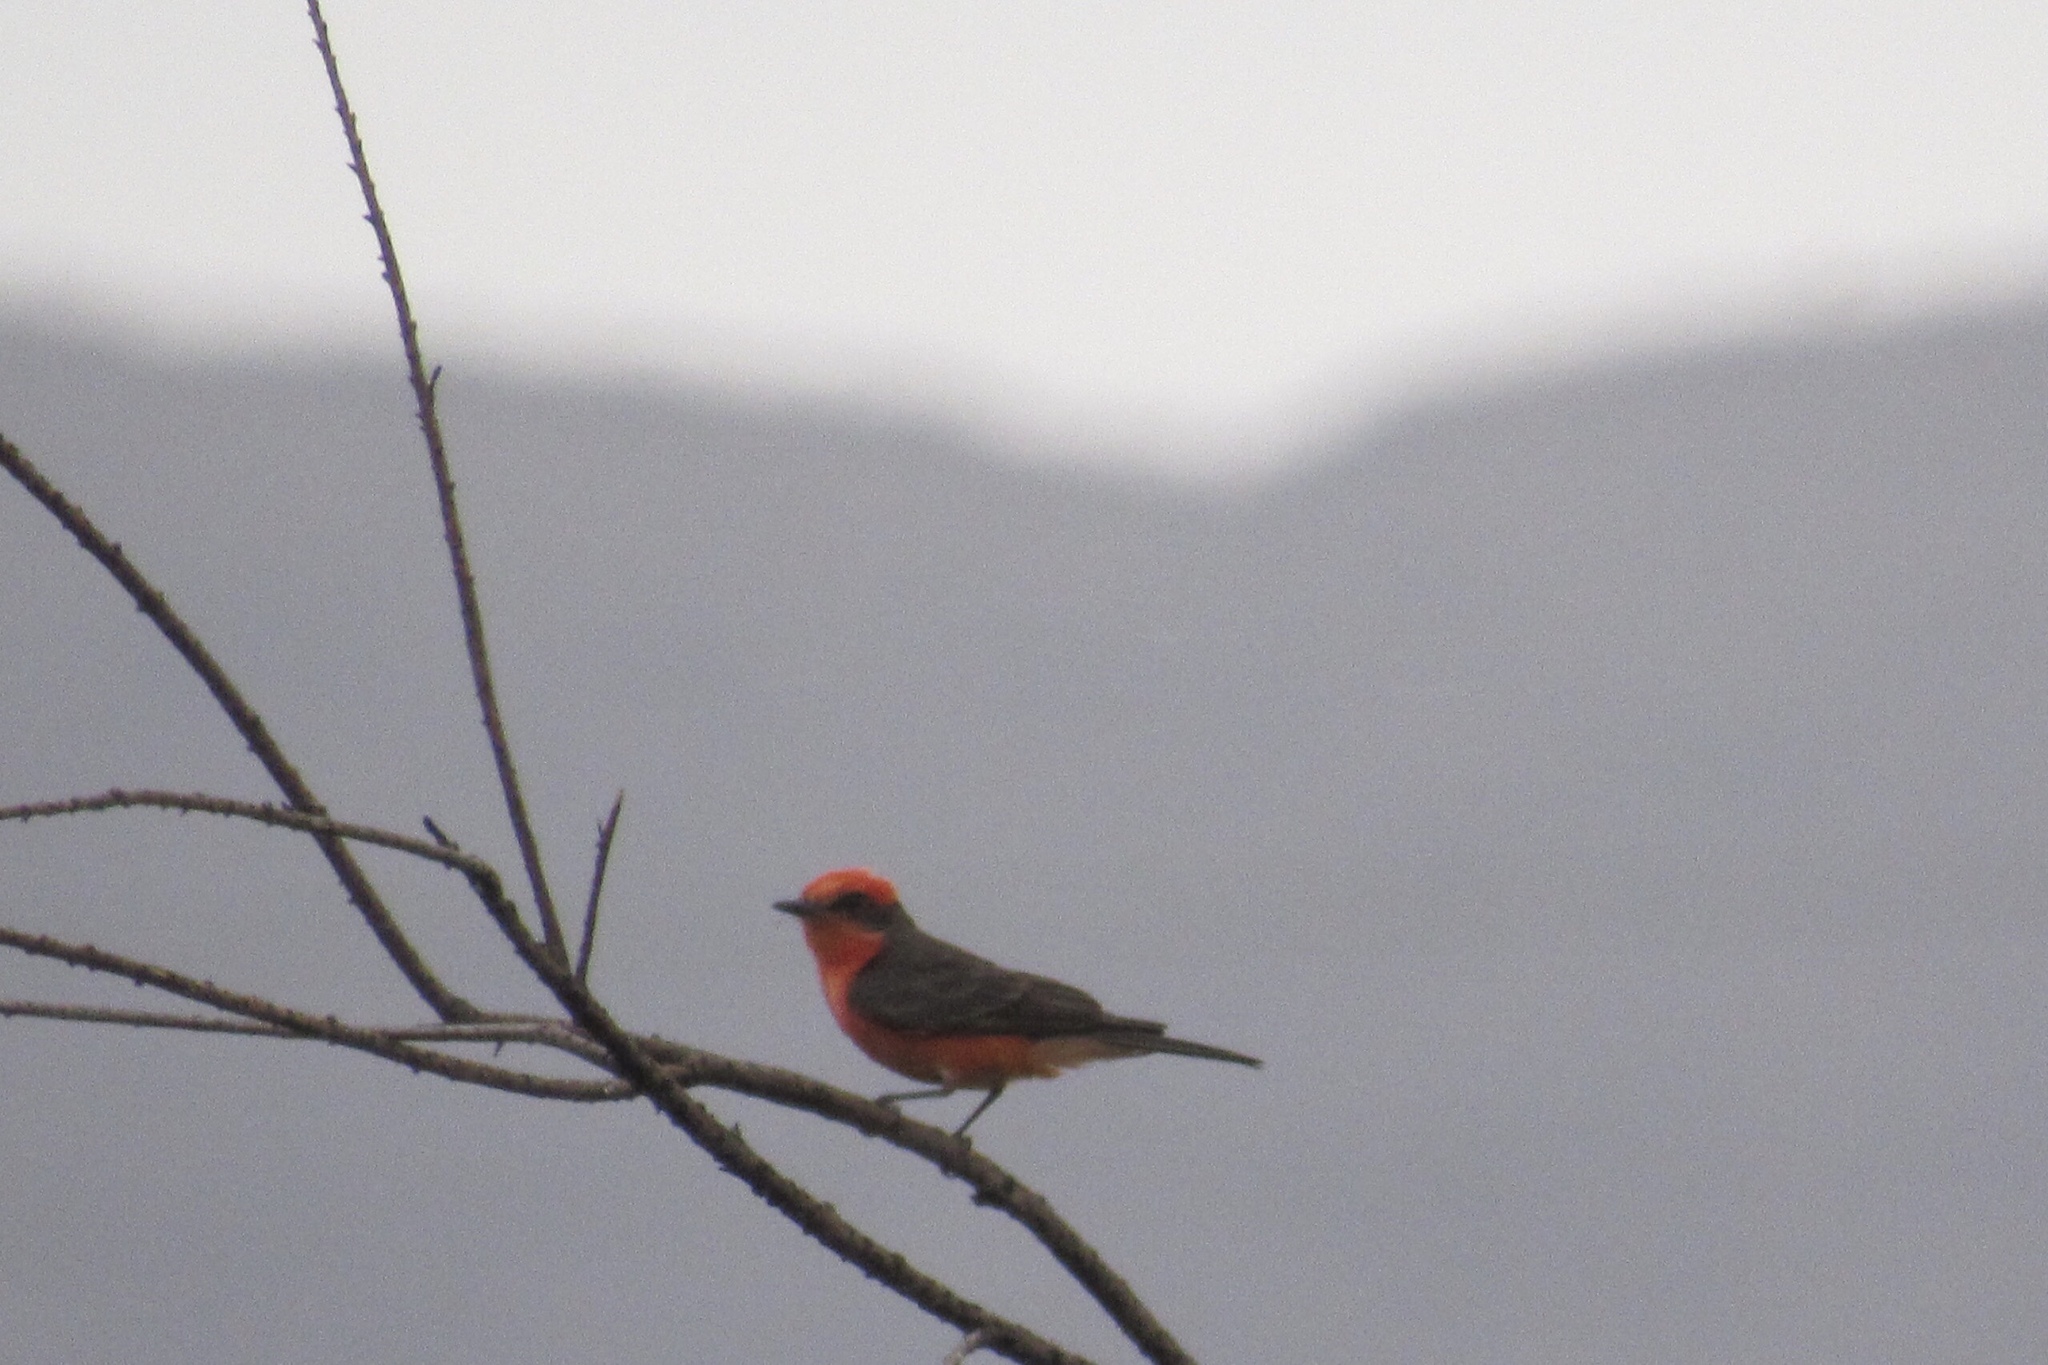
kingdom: Animalia
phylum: Chordata
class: Aves
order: Passeriformes
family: Tyrannidae
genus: Pyrocephalus
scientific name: Pyrocephalus rubinus
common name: Vermilion flycatcher
